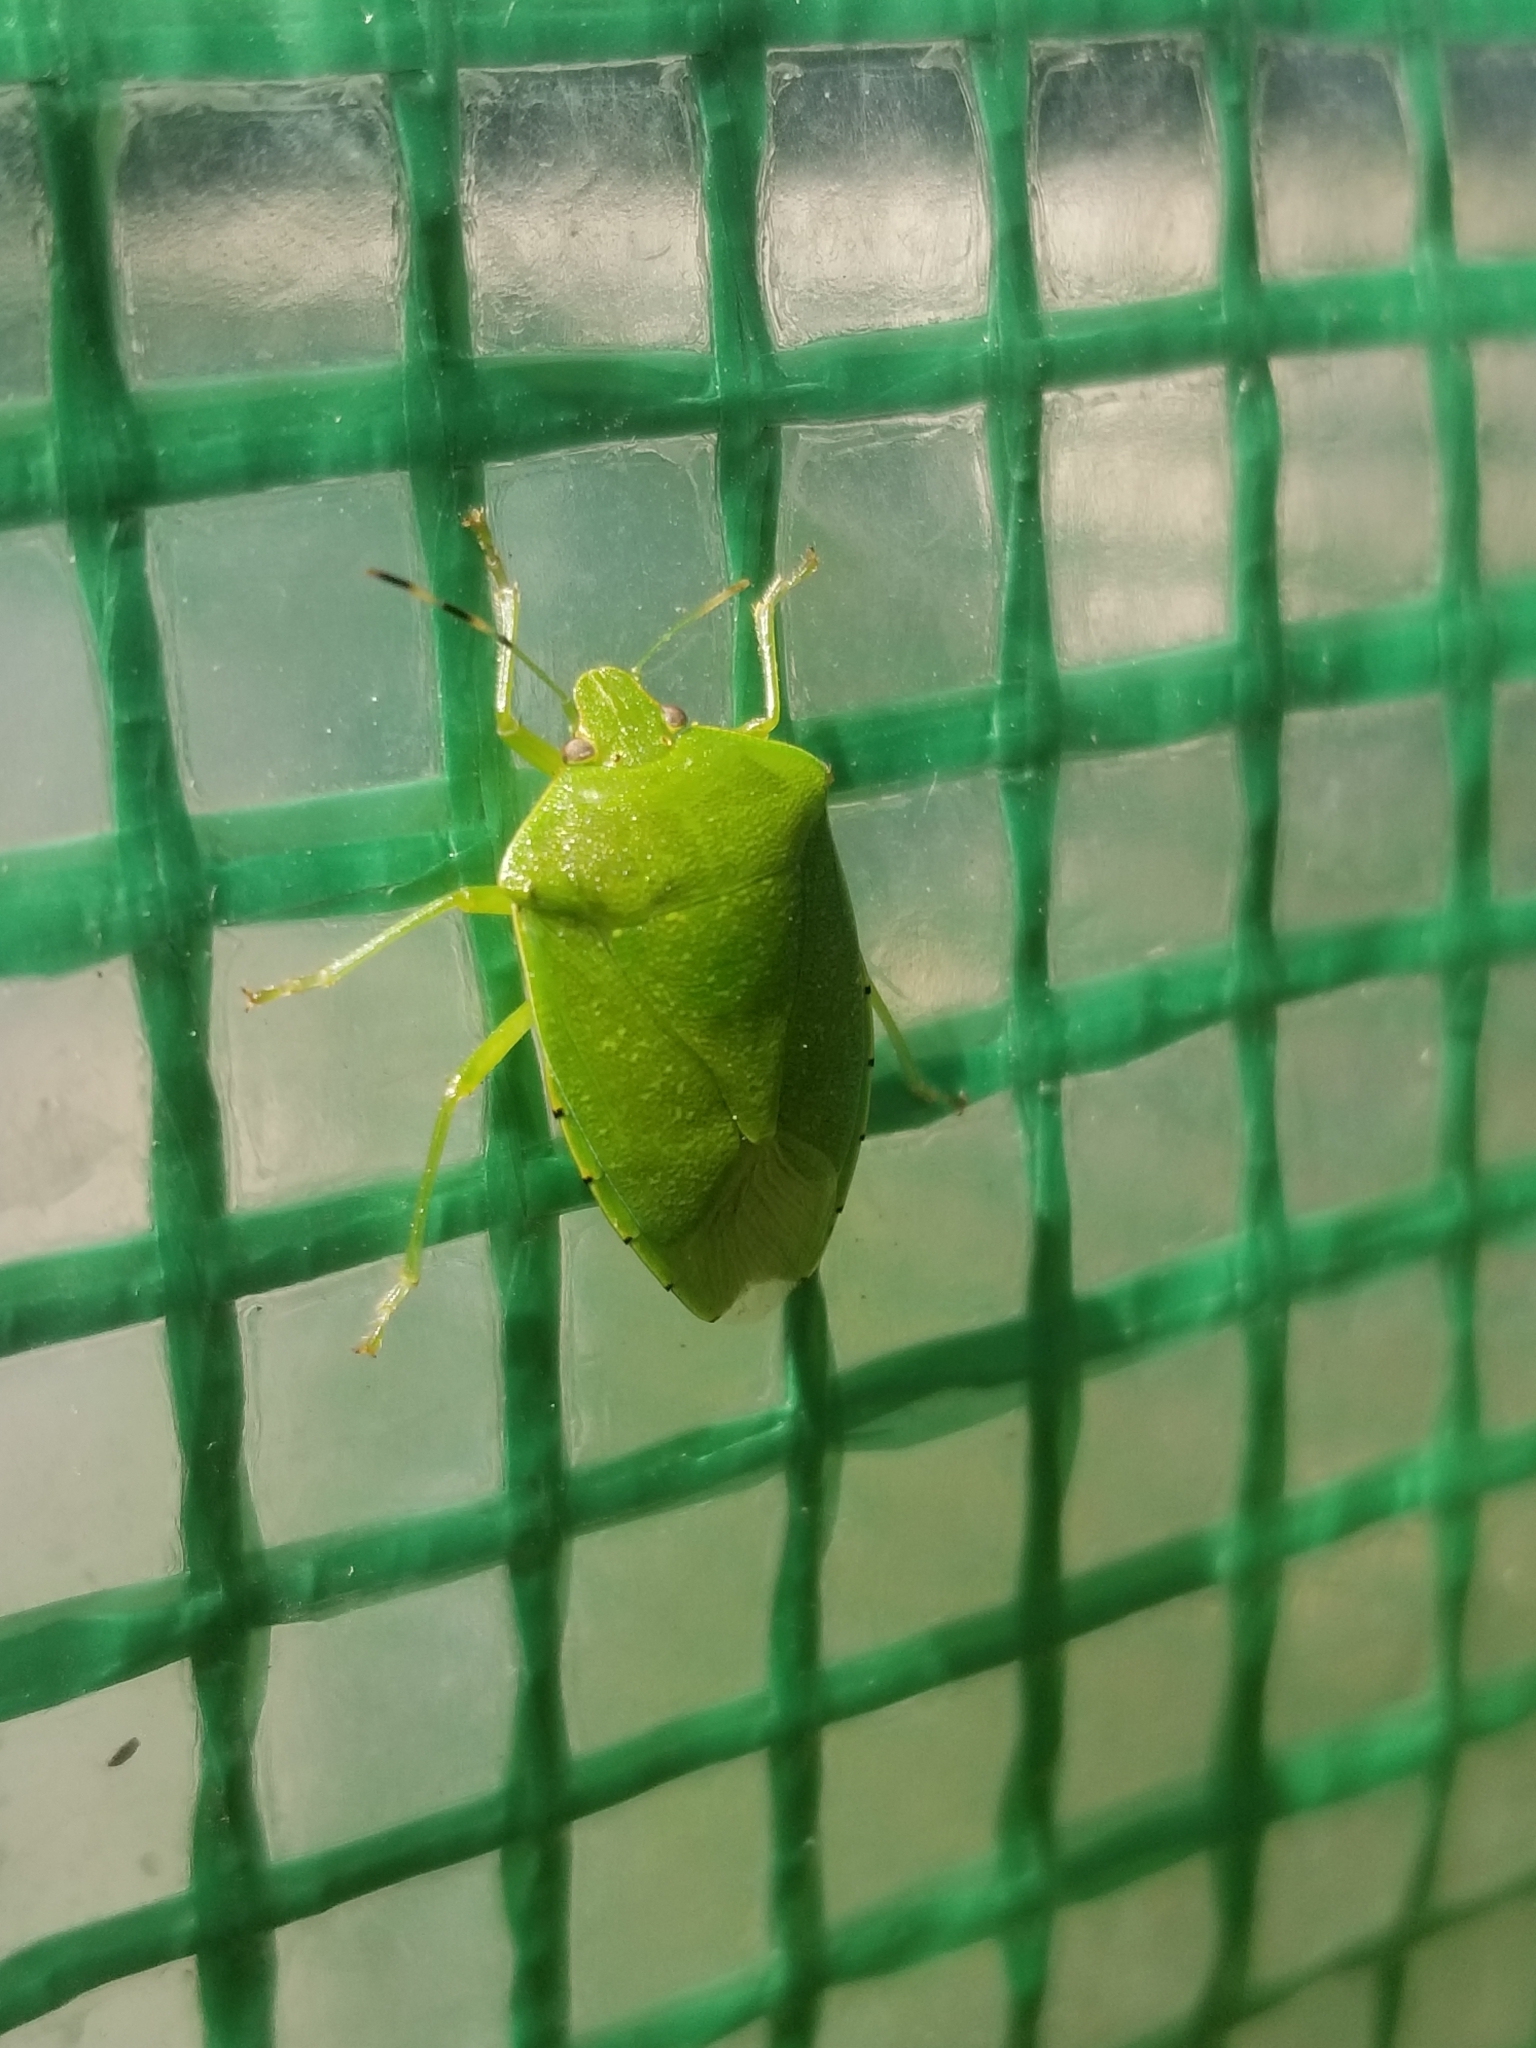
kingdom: Animalia
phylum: Arthropoda
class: Insecta
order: Hemiptera
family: Pentatomidae
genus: Chinavia
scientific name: Chinavia hilaris
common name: Green stink bug
